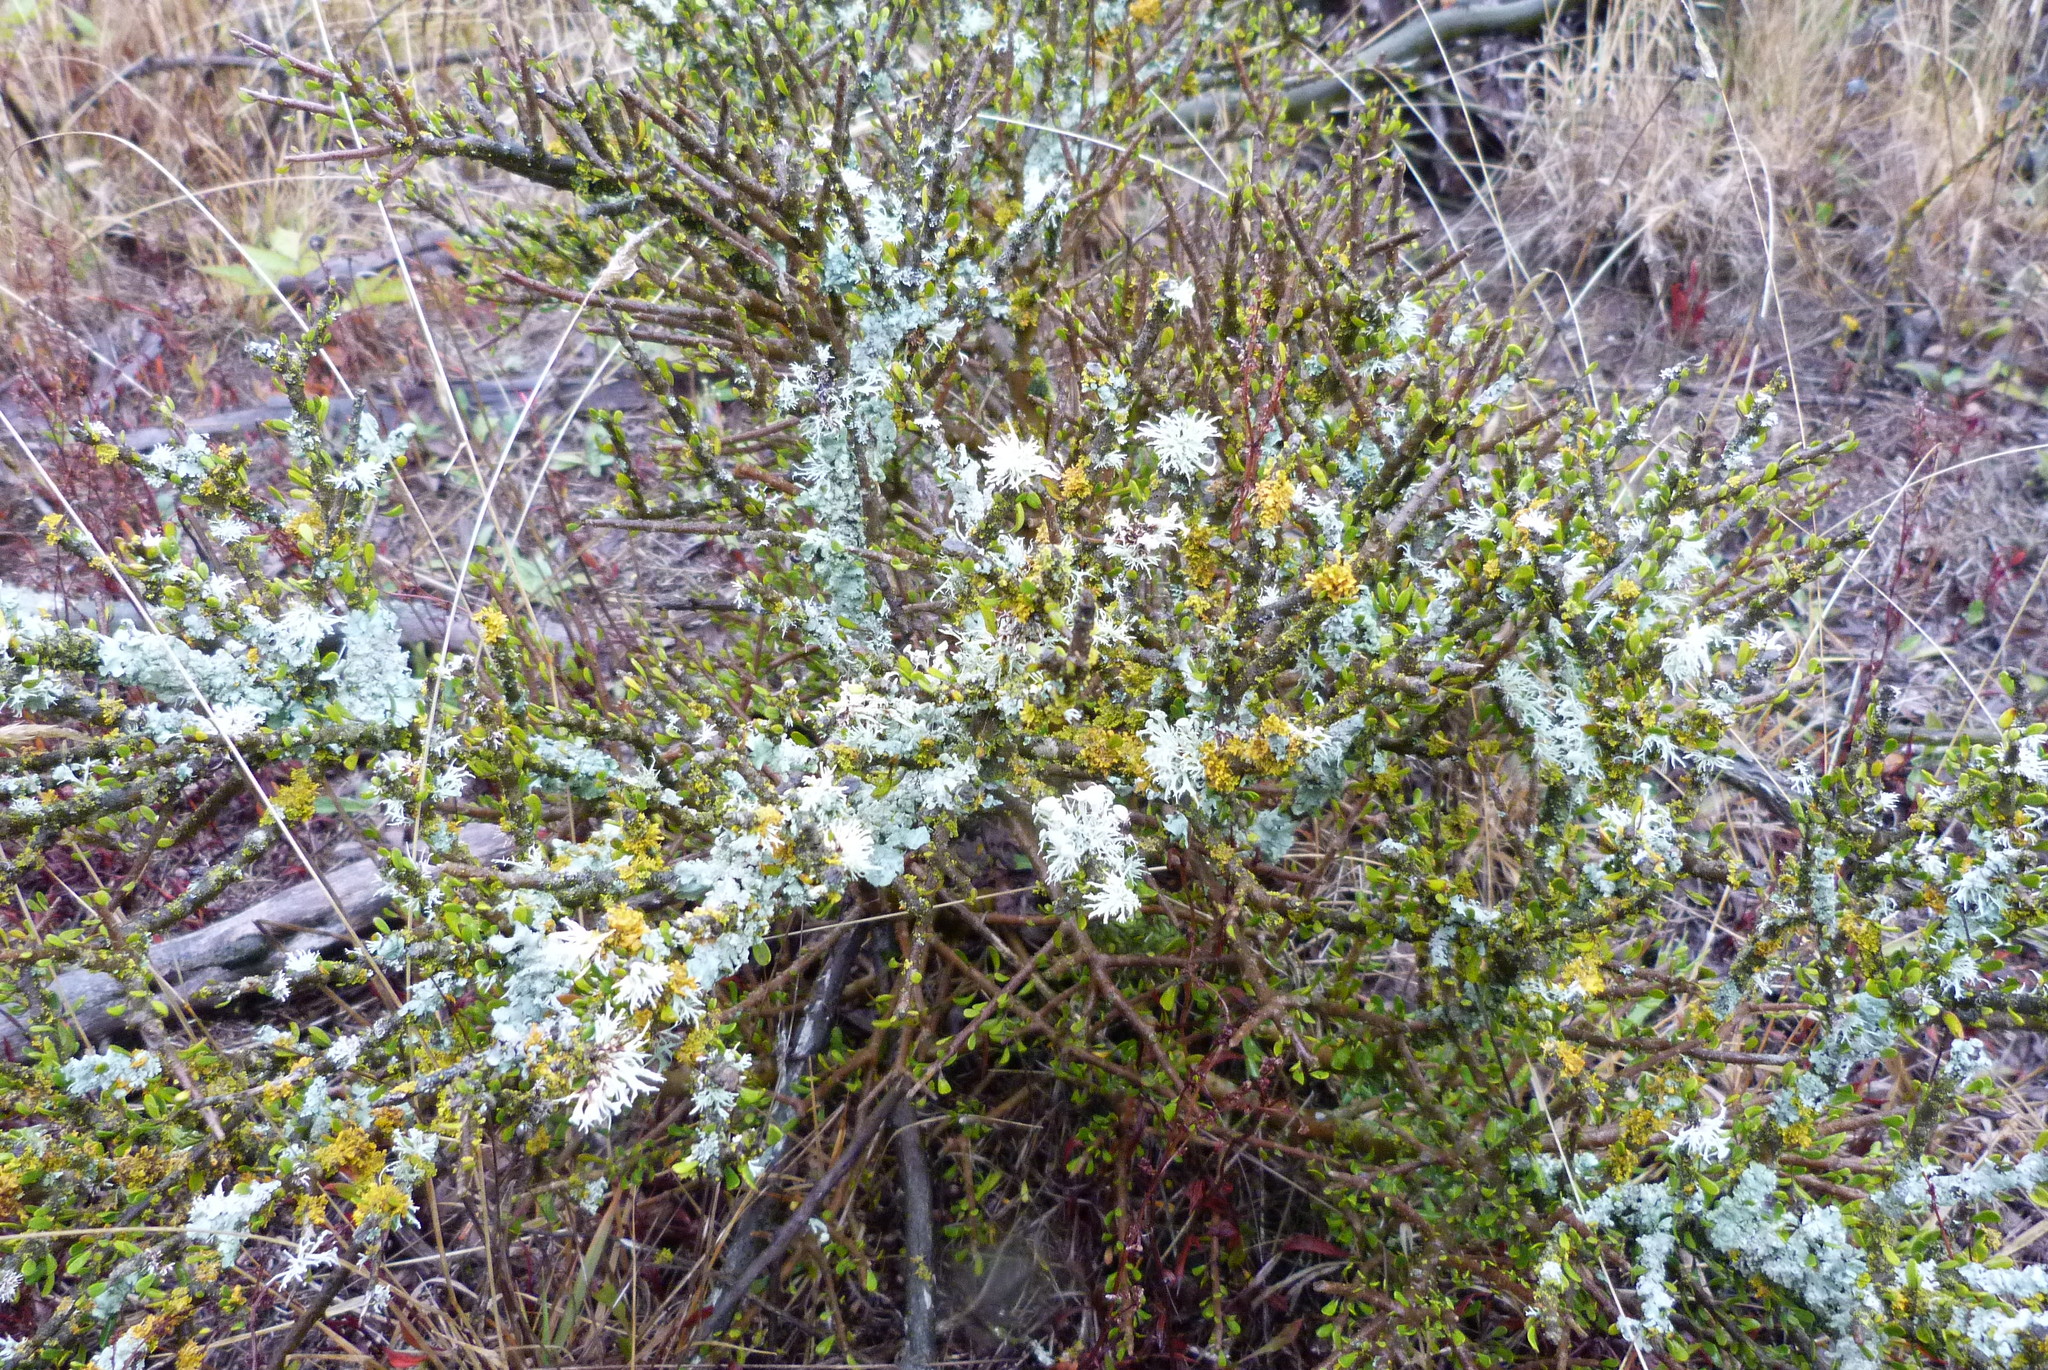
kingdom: Plantae
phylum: Tracheophyta
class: Magnoliopsida
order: Malpighiales
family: Violaceae
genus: Melicytus
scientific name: Melicytus alpinus
